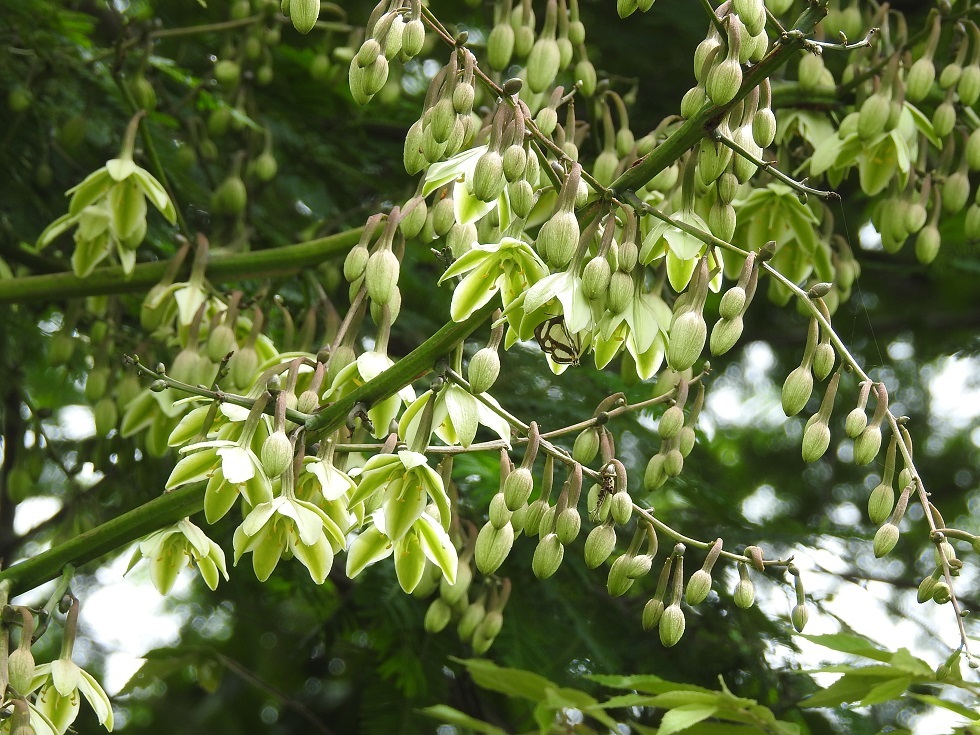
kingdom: Plantae
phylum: Tracheophyta
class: Liliopsida
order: Asparagales
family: Asparagaceae
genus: Furcraea
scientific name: Furcraea guatemalensis
